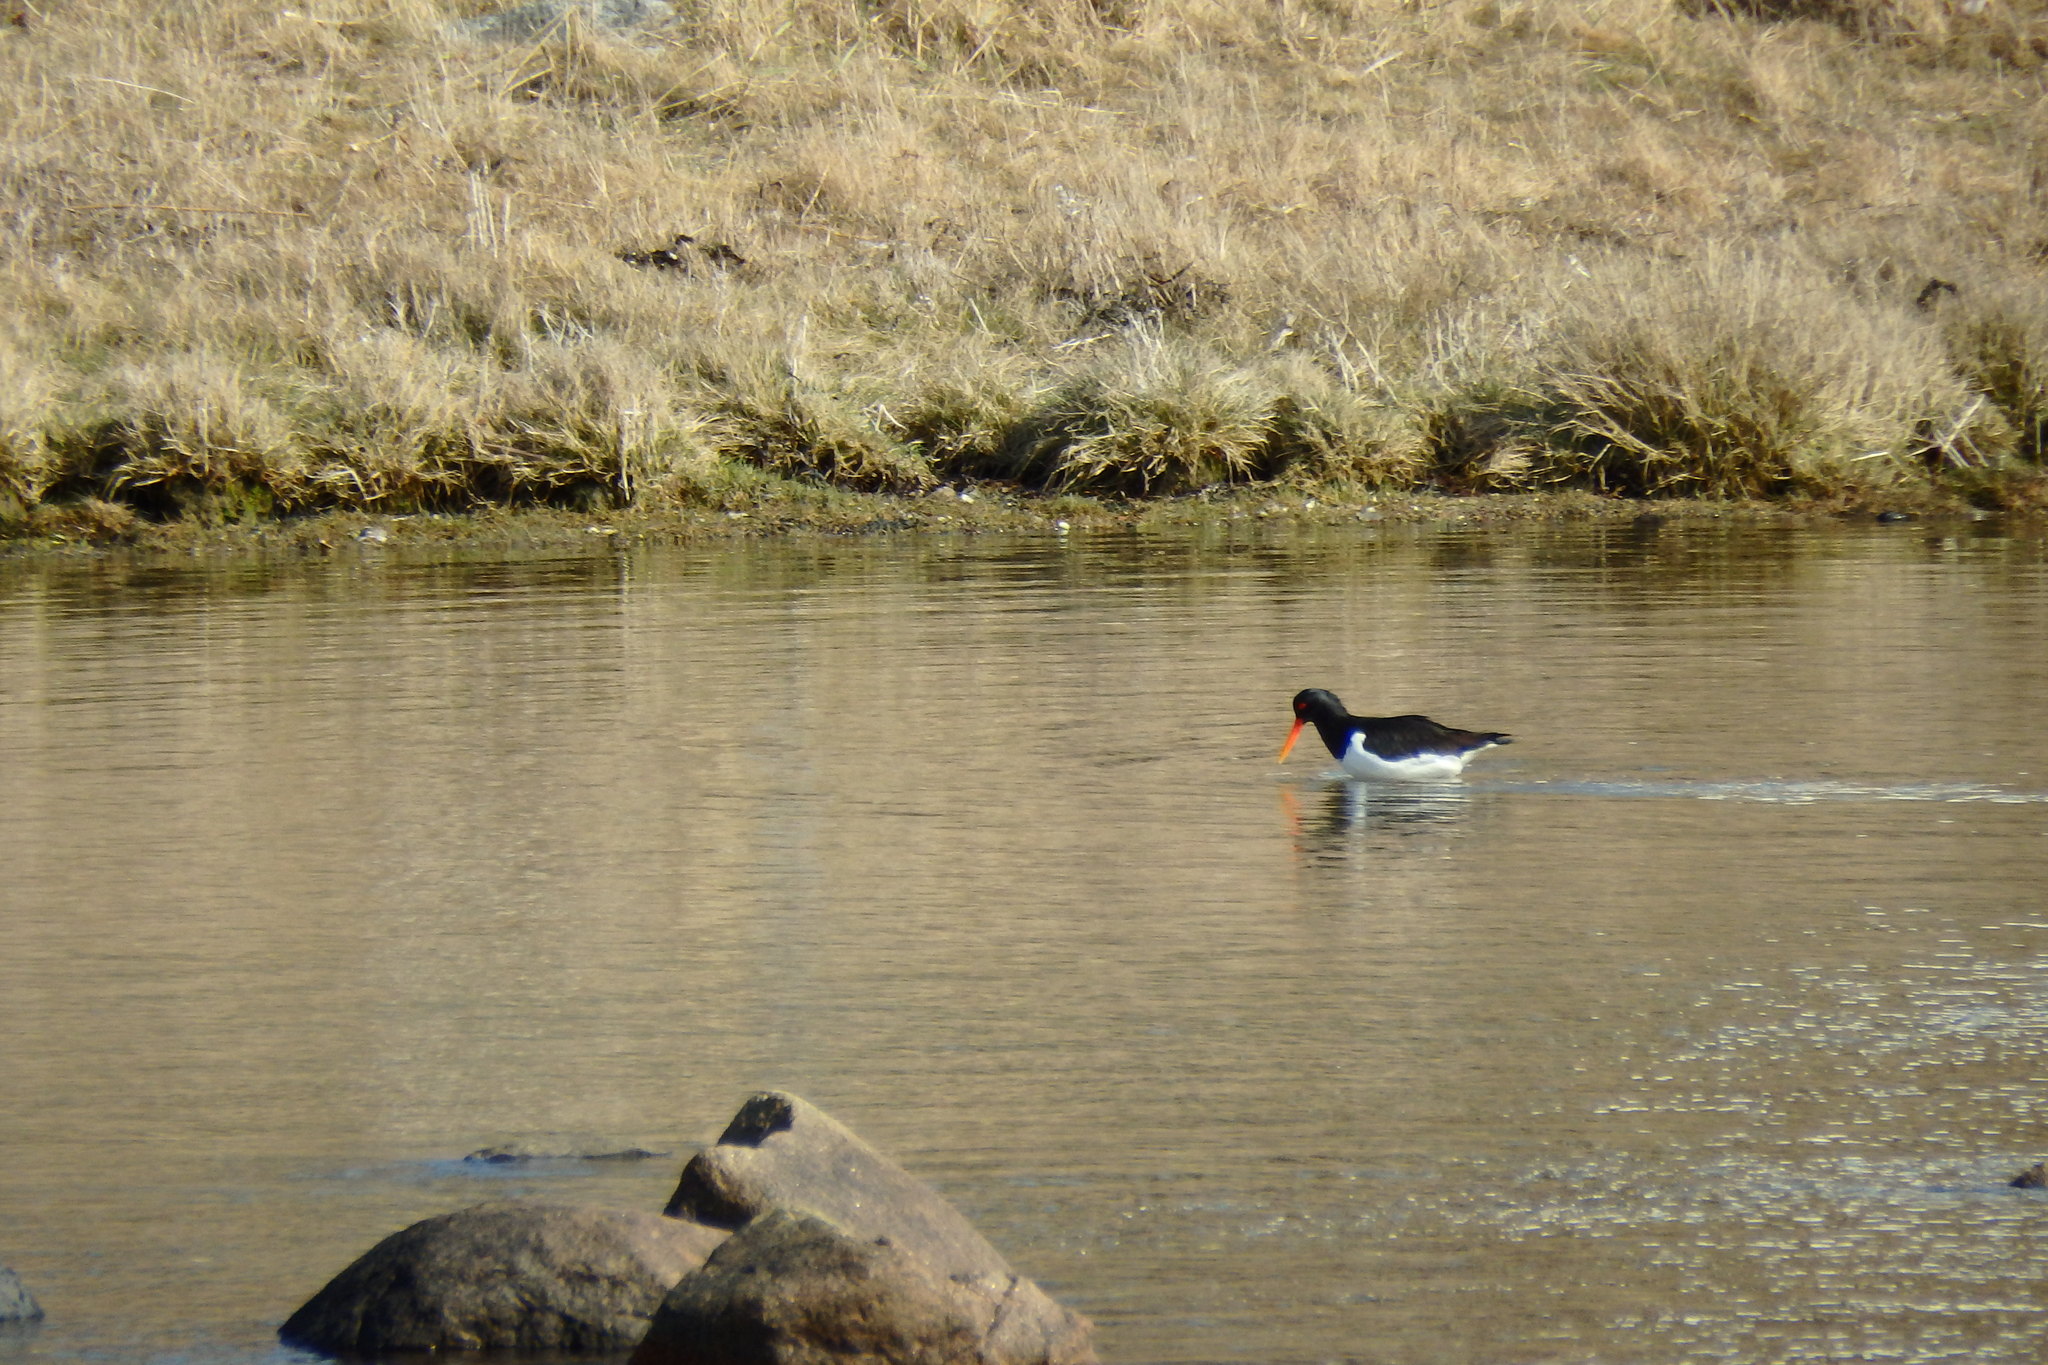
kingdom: Animalia
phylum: Chordata
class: Aves
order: Charadriiformes
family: Haematopodidae
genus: Haematopus
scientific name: Haematopus ostralegus
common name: Eurasian oystercatcher
